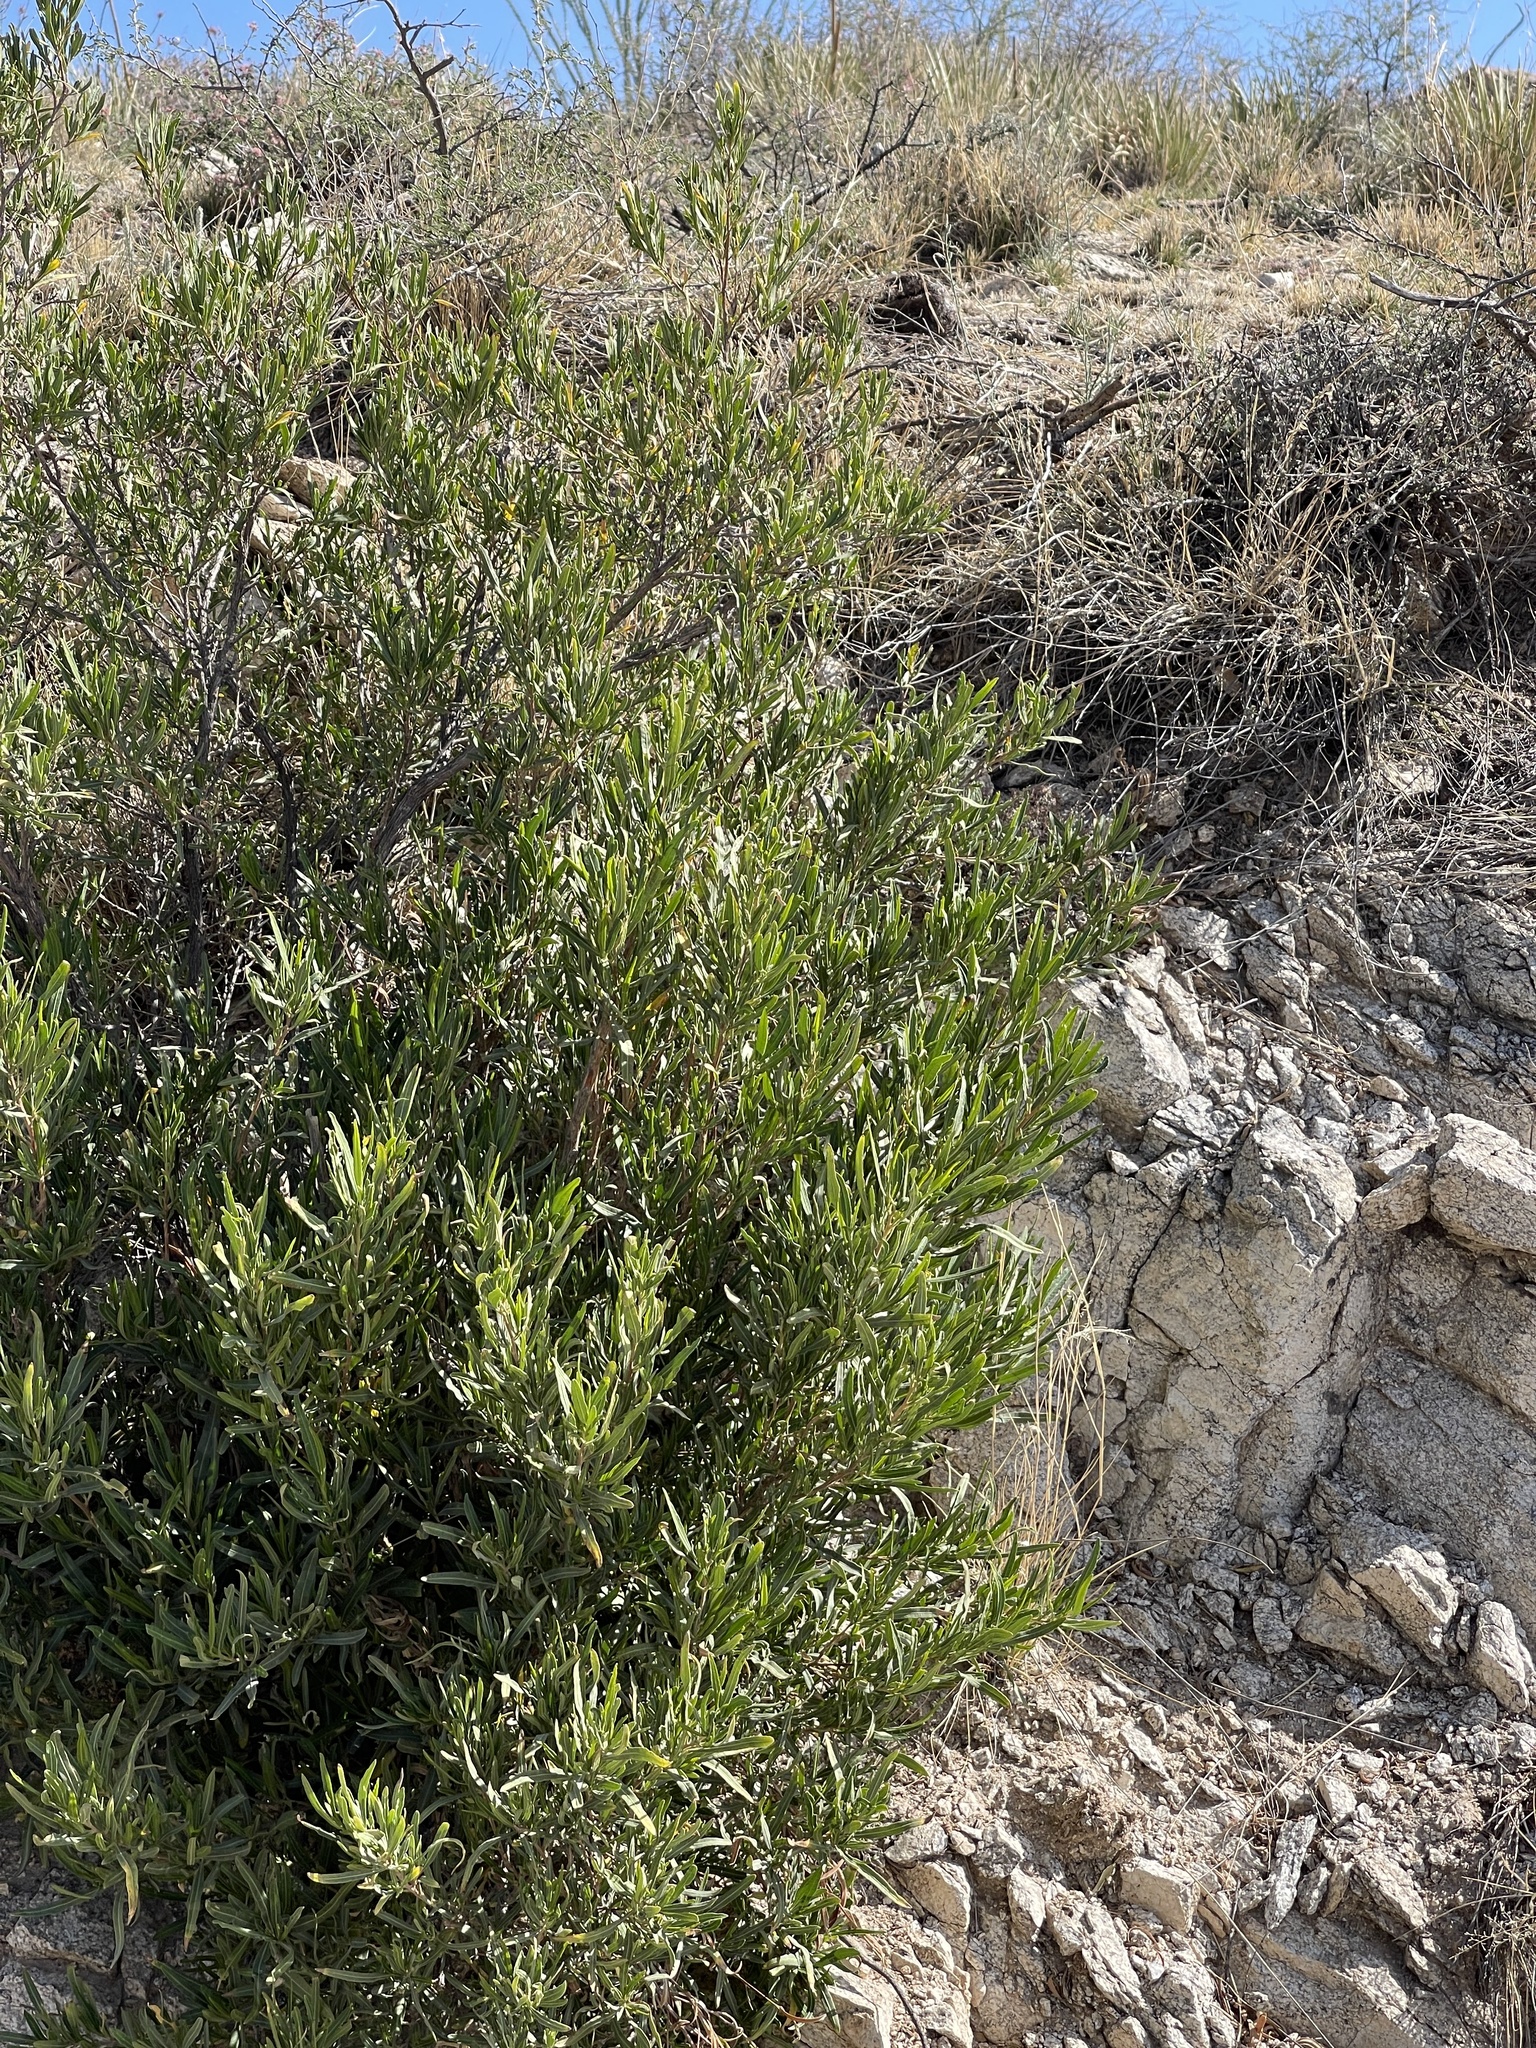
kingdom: Plantae
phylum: Tracheophyta
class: Magnoliopsida
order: Sapindales
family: Sapindaceae
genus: Dodonaea
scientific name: Dodonaea viscosa
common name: Hopbush
